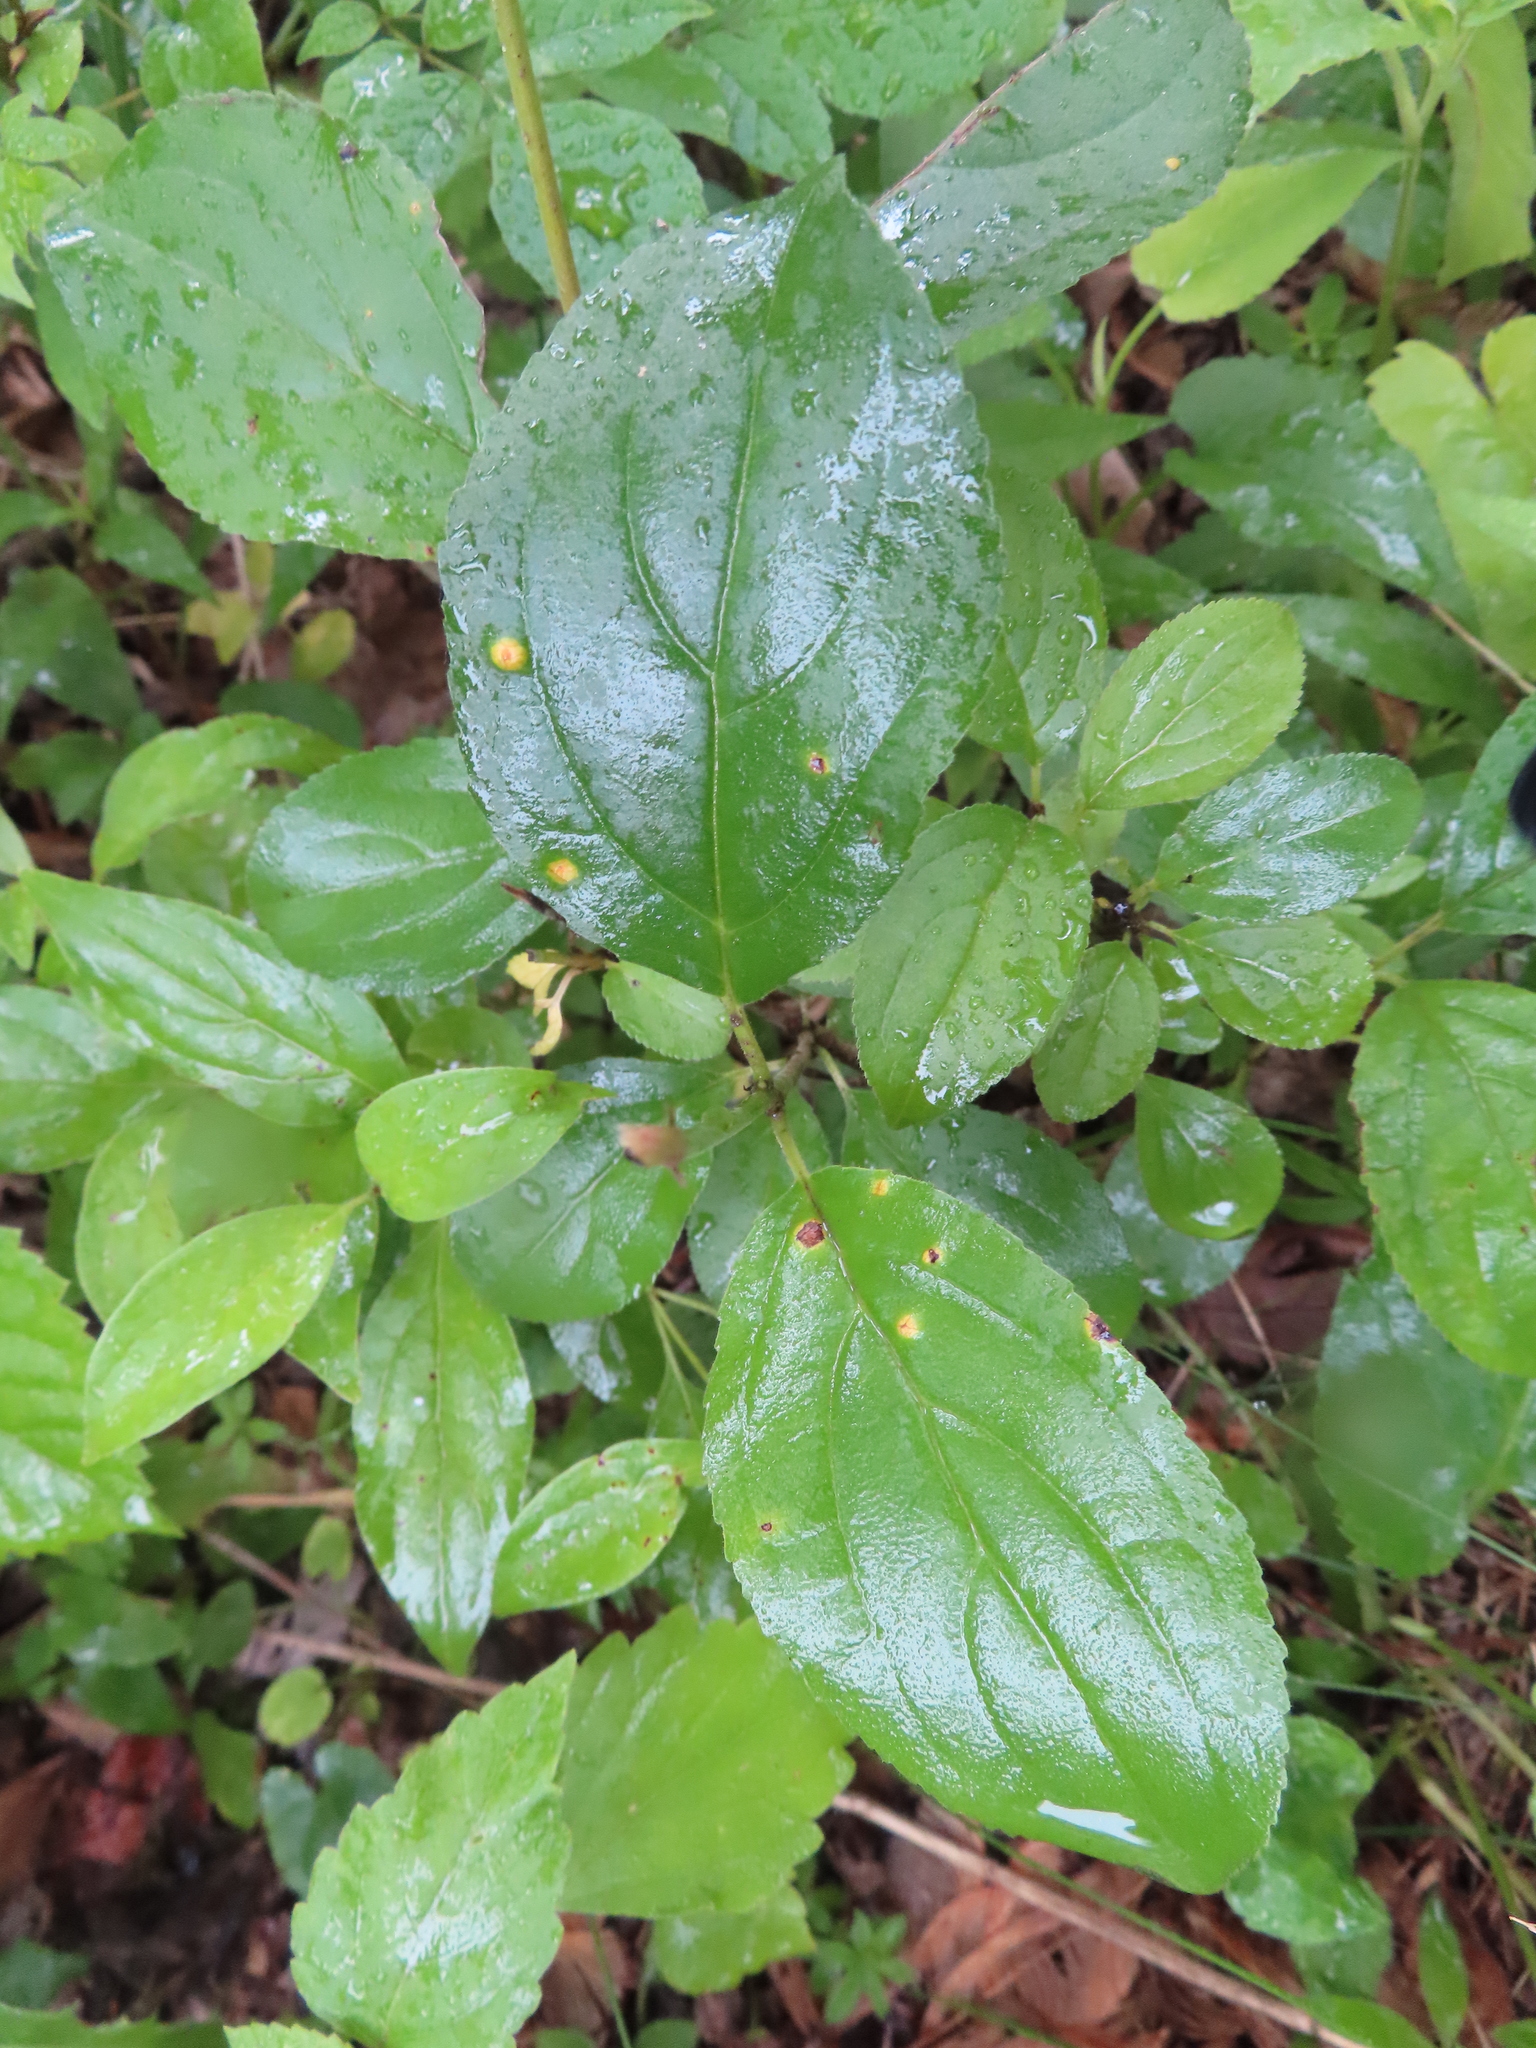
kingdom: Fungi
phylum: Basidiomycota
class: Pucciniomycetes
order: Pucciniales
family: Pucciniaceae
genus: Puccinia
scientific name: Puccinia coronata
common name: Crown rust
